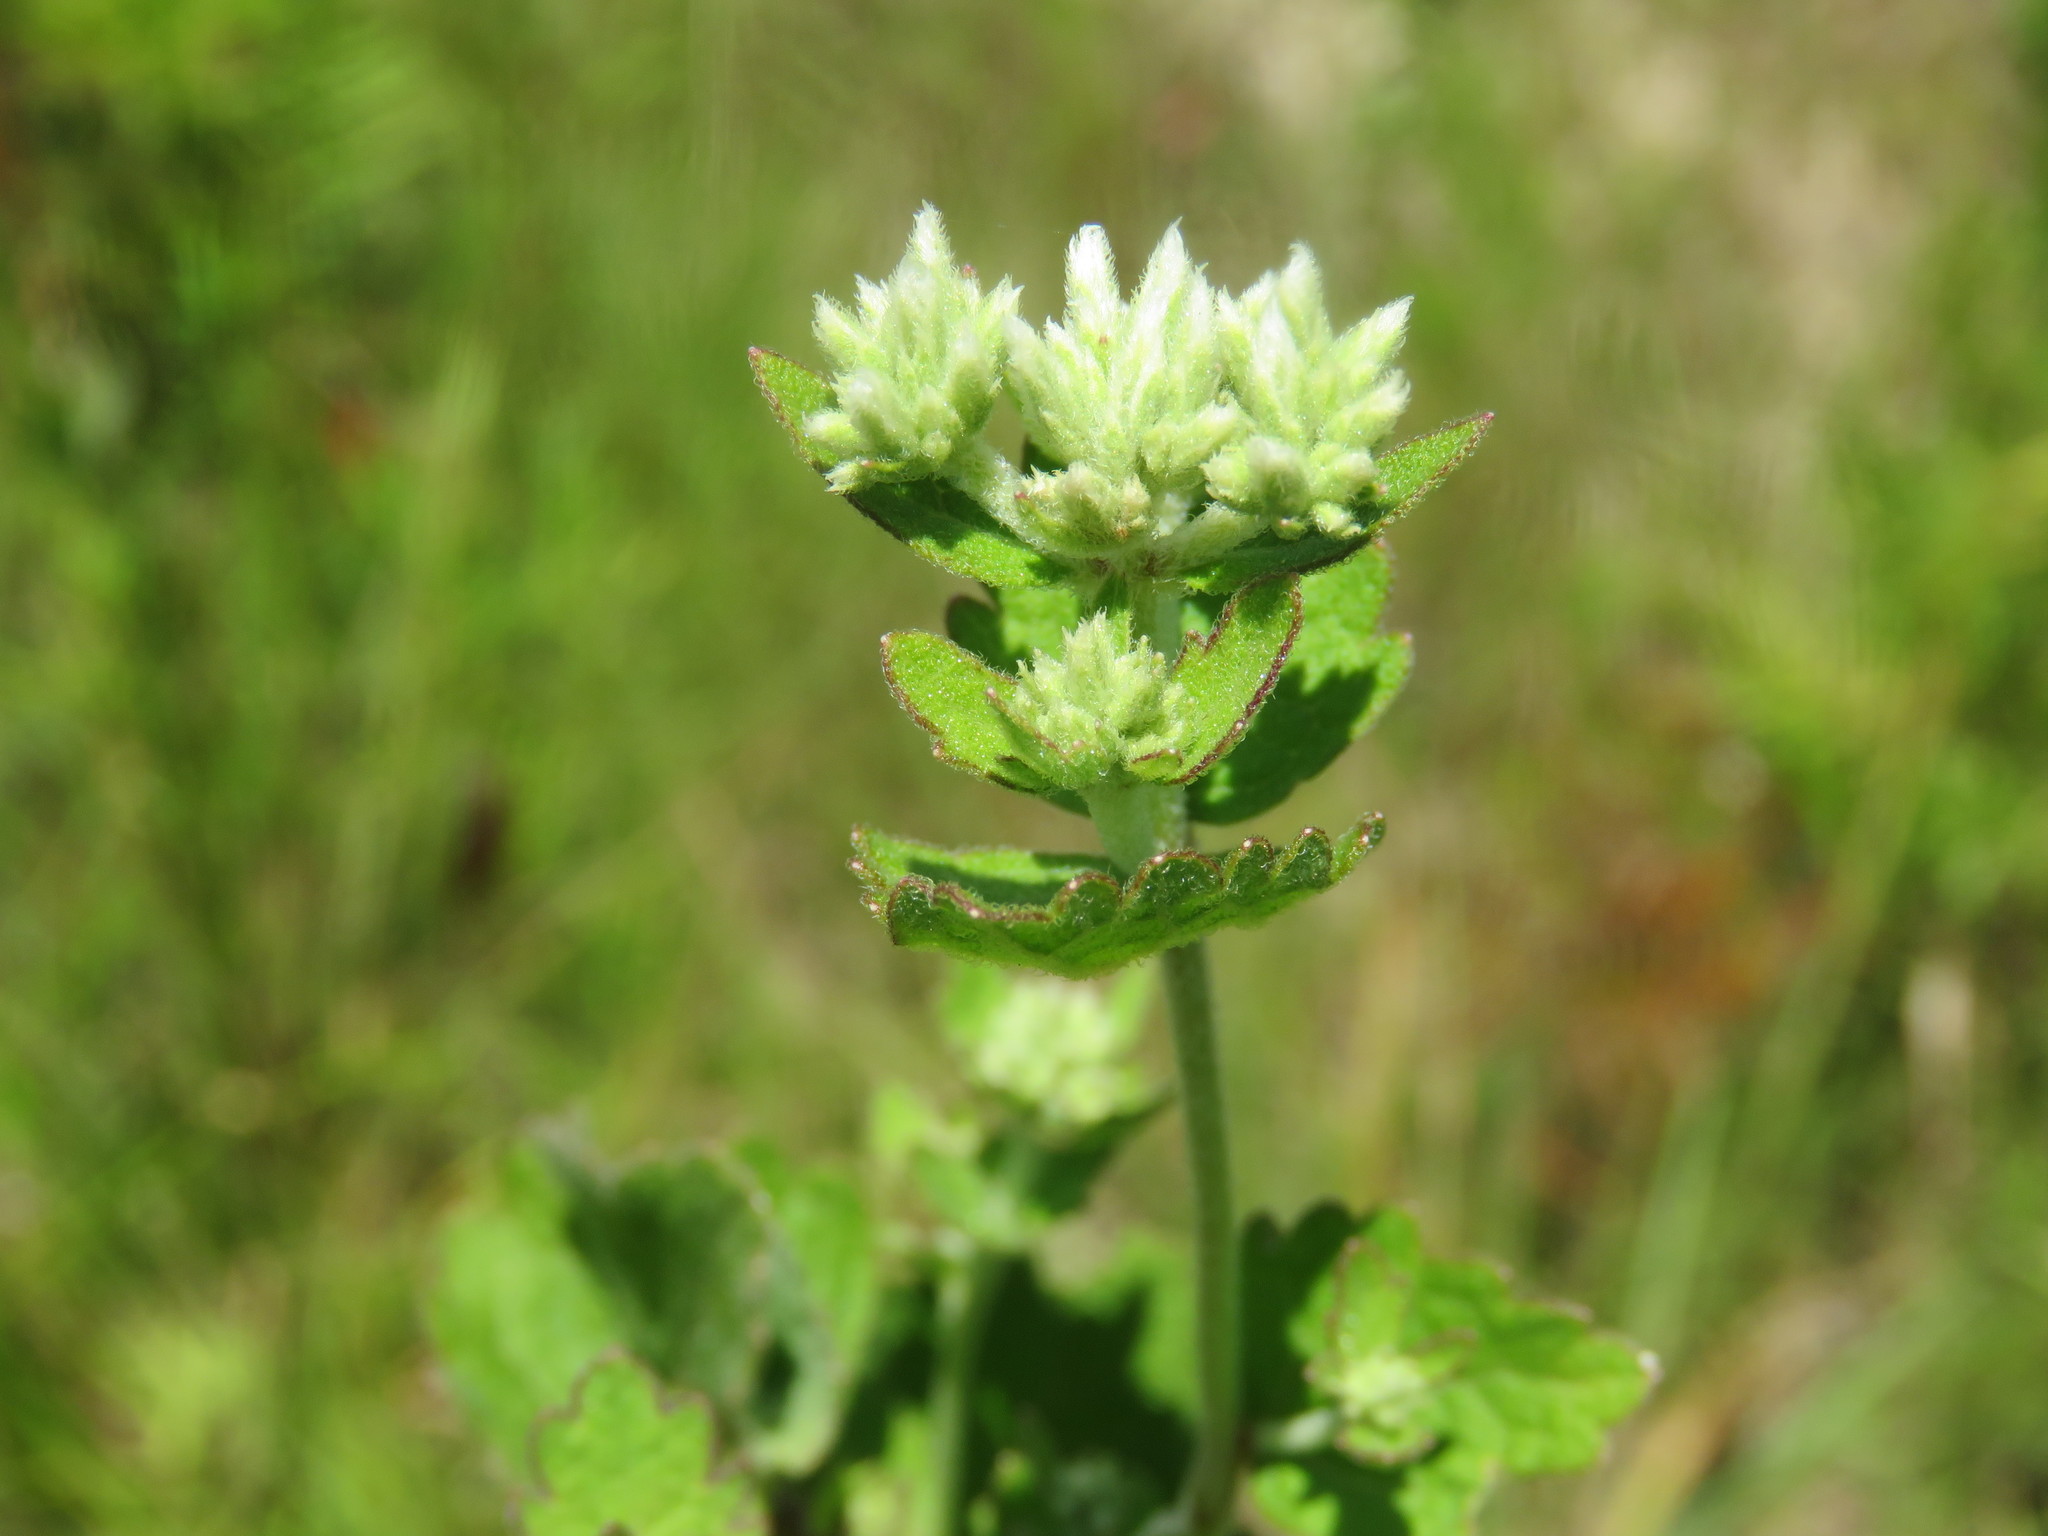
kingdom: Plantae
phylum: Tracheophyta
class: Magnoliopsida
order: Asterales
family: Asteraceae
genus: Eupatorium
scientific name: Eupatorium rotundifolium
